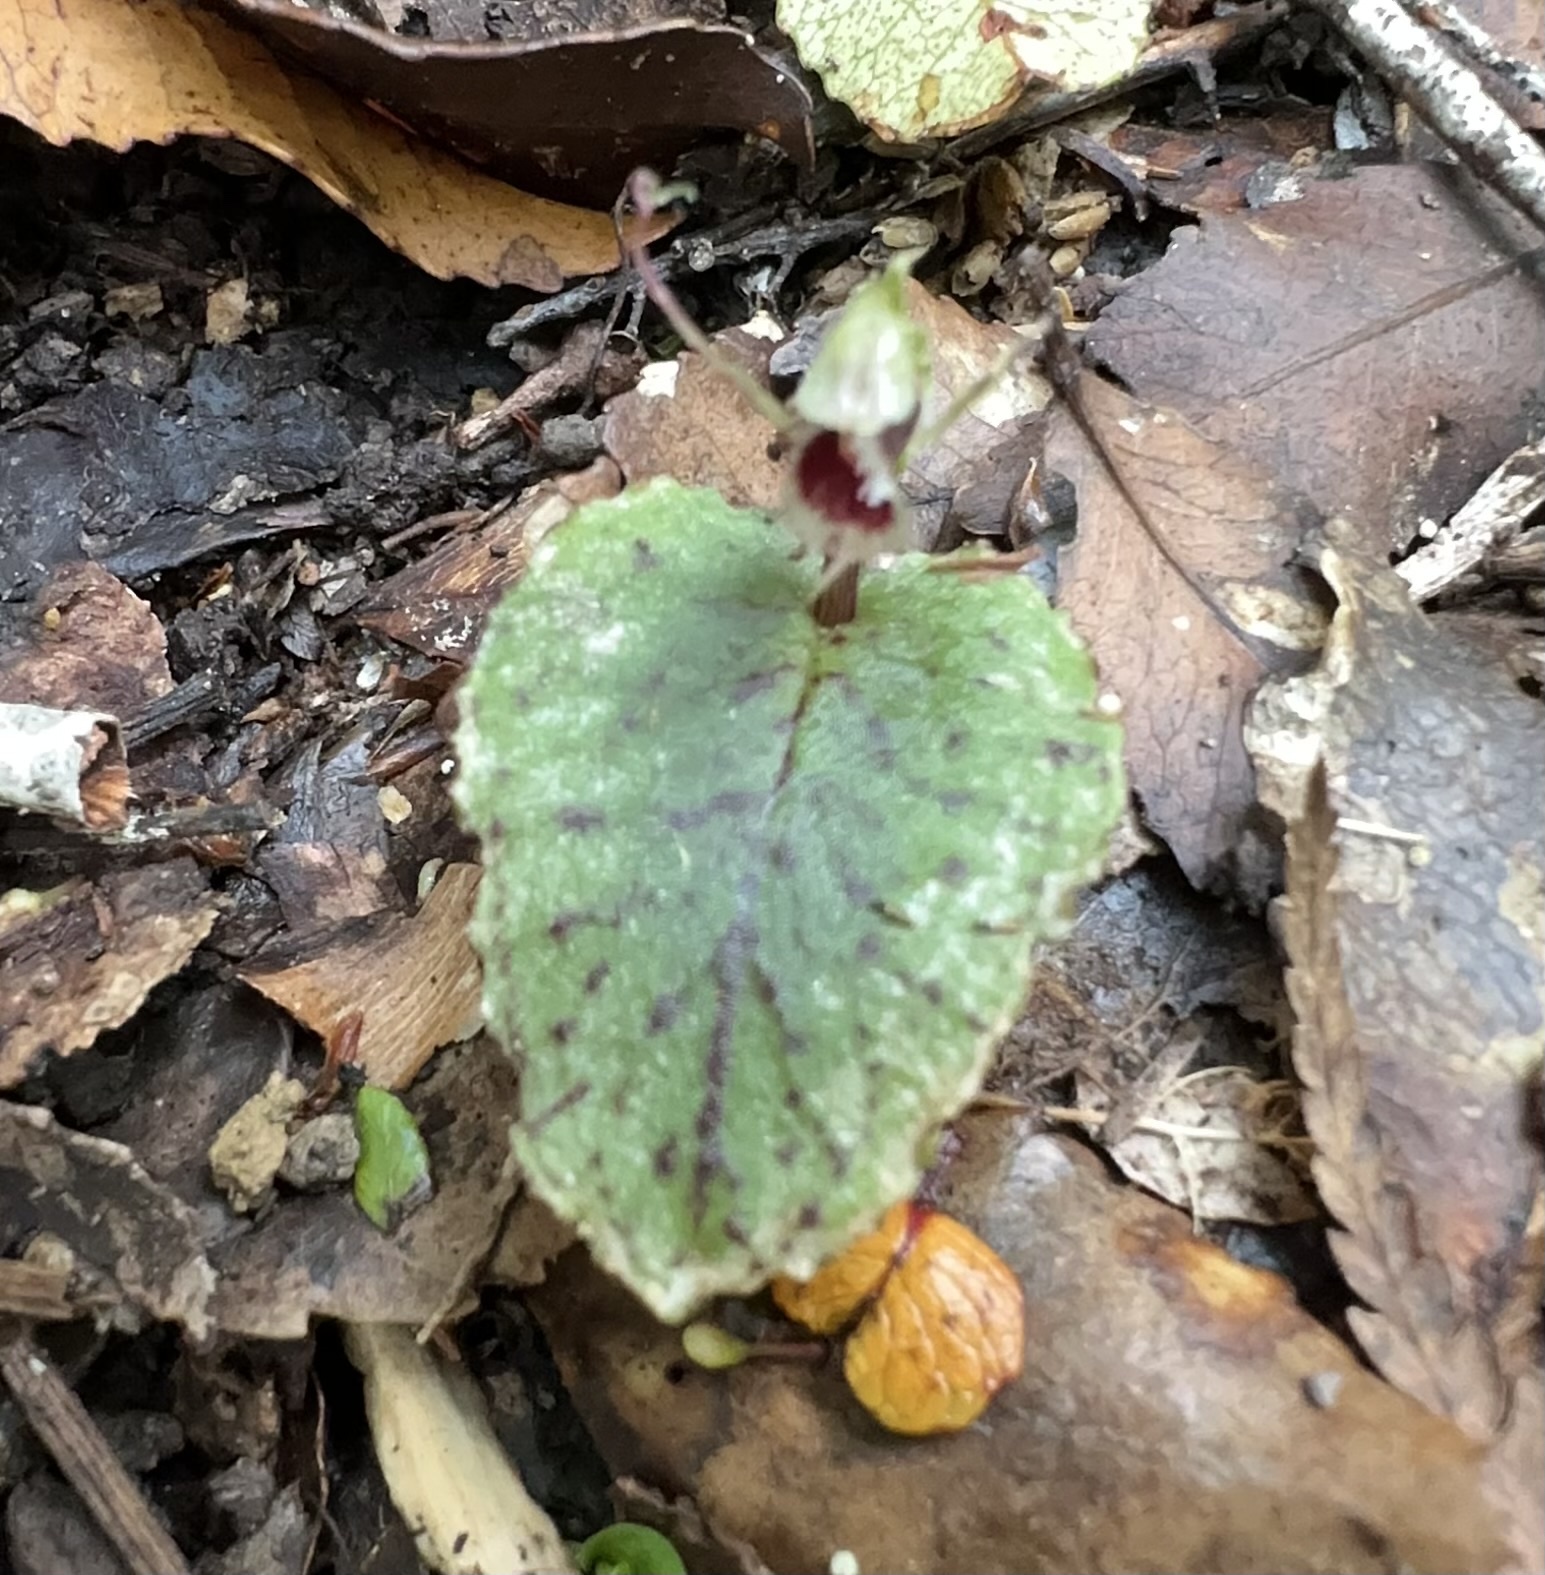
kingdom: Plantae
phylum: Tracheophyta
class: Liliopsida
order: Asparagales
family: Orchidaceae
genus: Corybas
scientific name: Corybas oblongus
